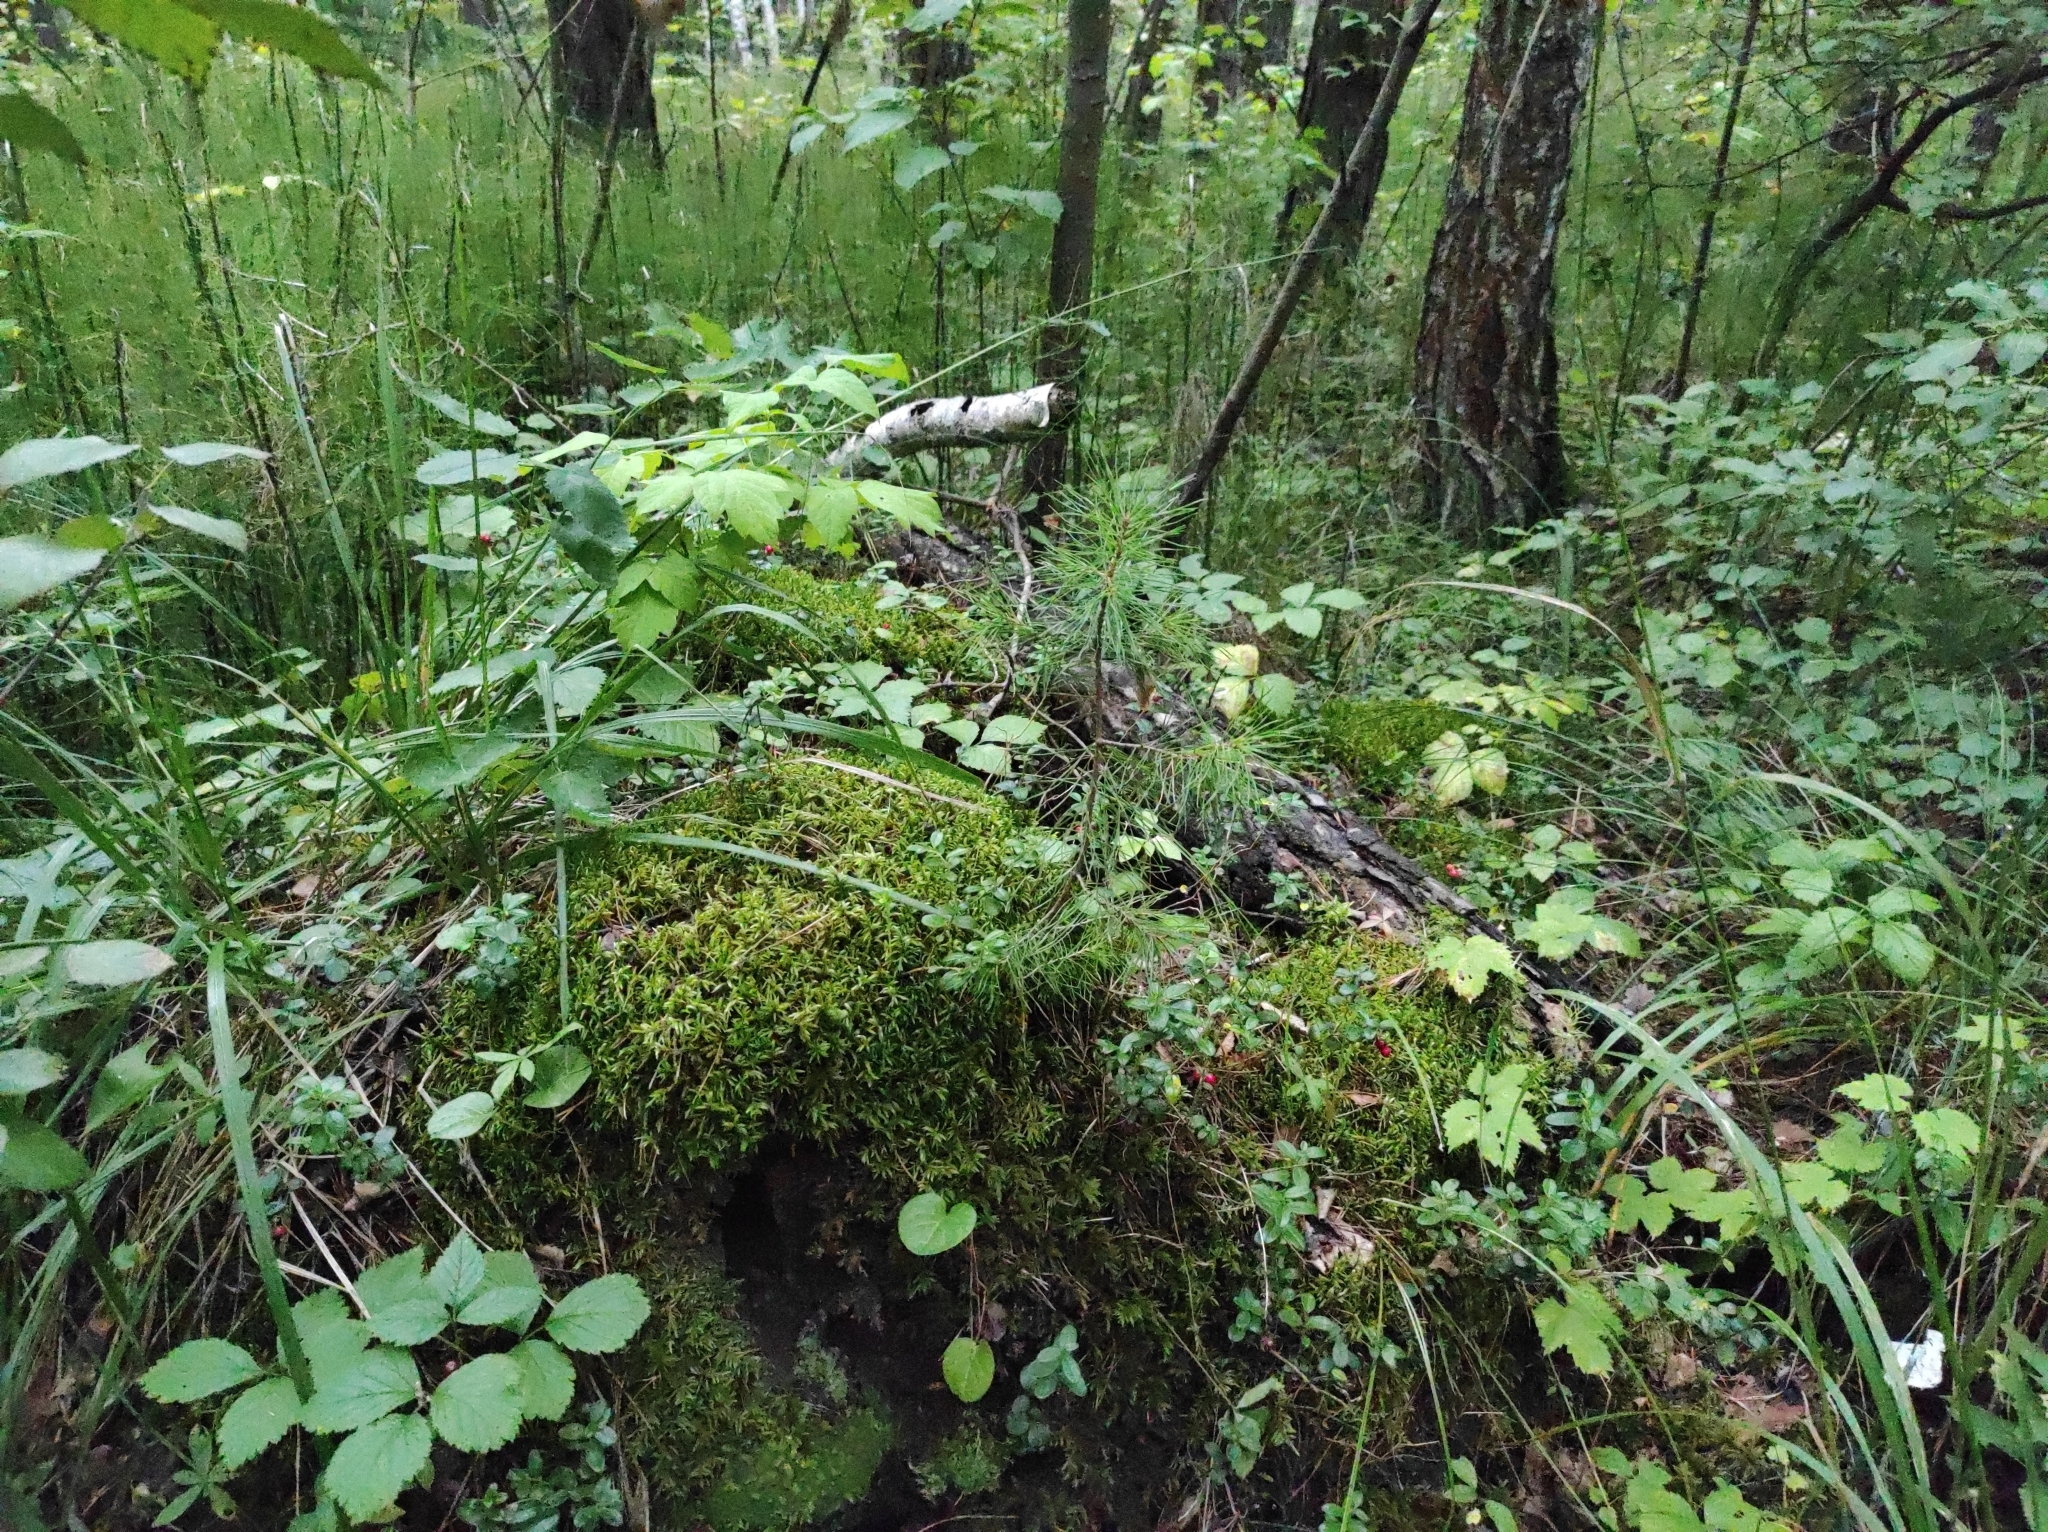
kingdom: Plantae
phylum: Tracheophyta
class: Pinopsida
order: Pinales
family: Pinaceae
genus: Pinus
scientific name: Pinus sylvestris
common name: Scots pine
